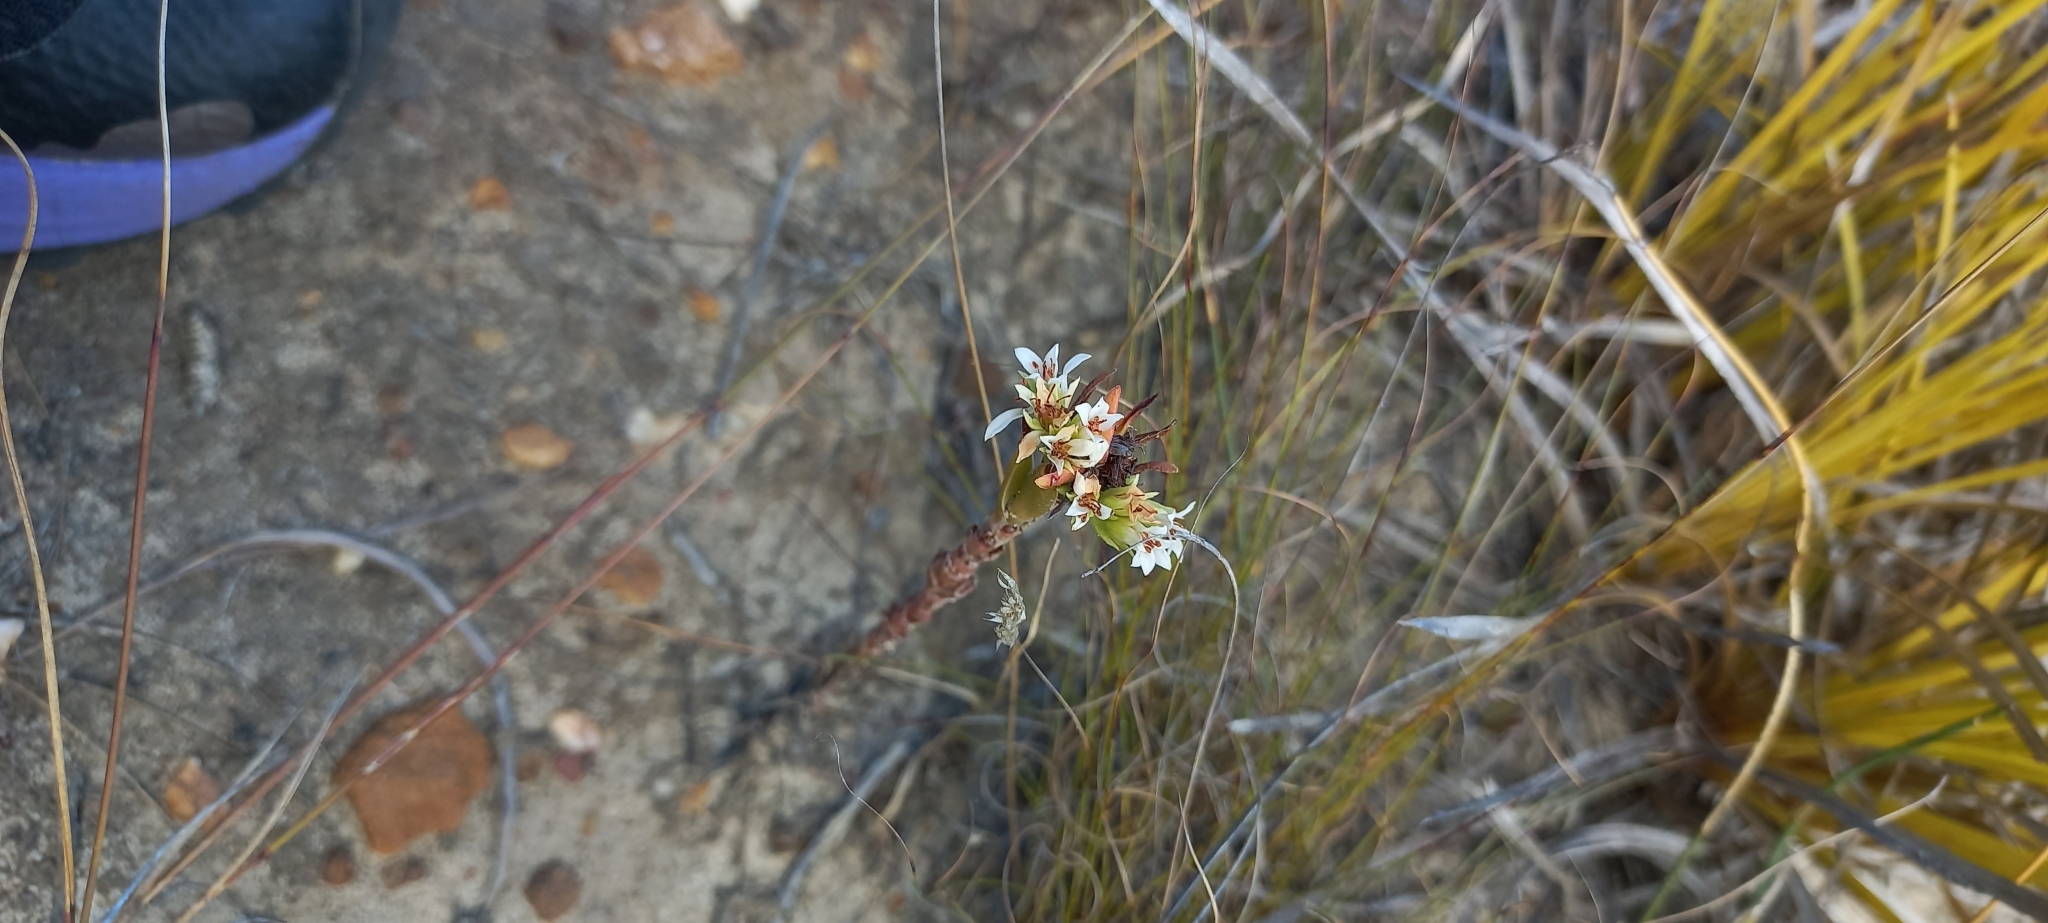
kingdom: Plantae
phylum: Tracheophyta
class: Magnoliopsida
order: Saxifragales
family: Crassulaceae
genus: Crassula
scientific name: Crassula flava
